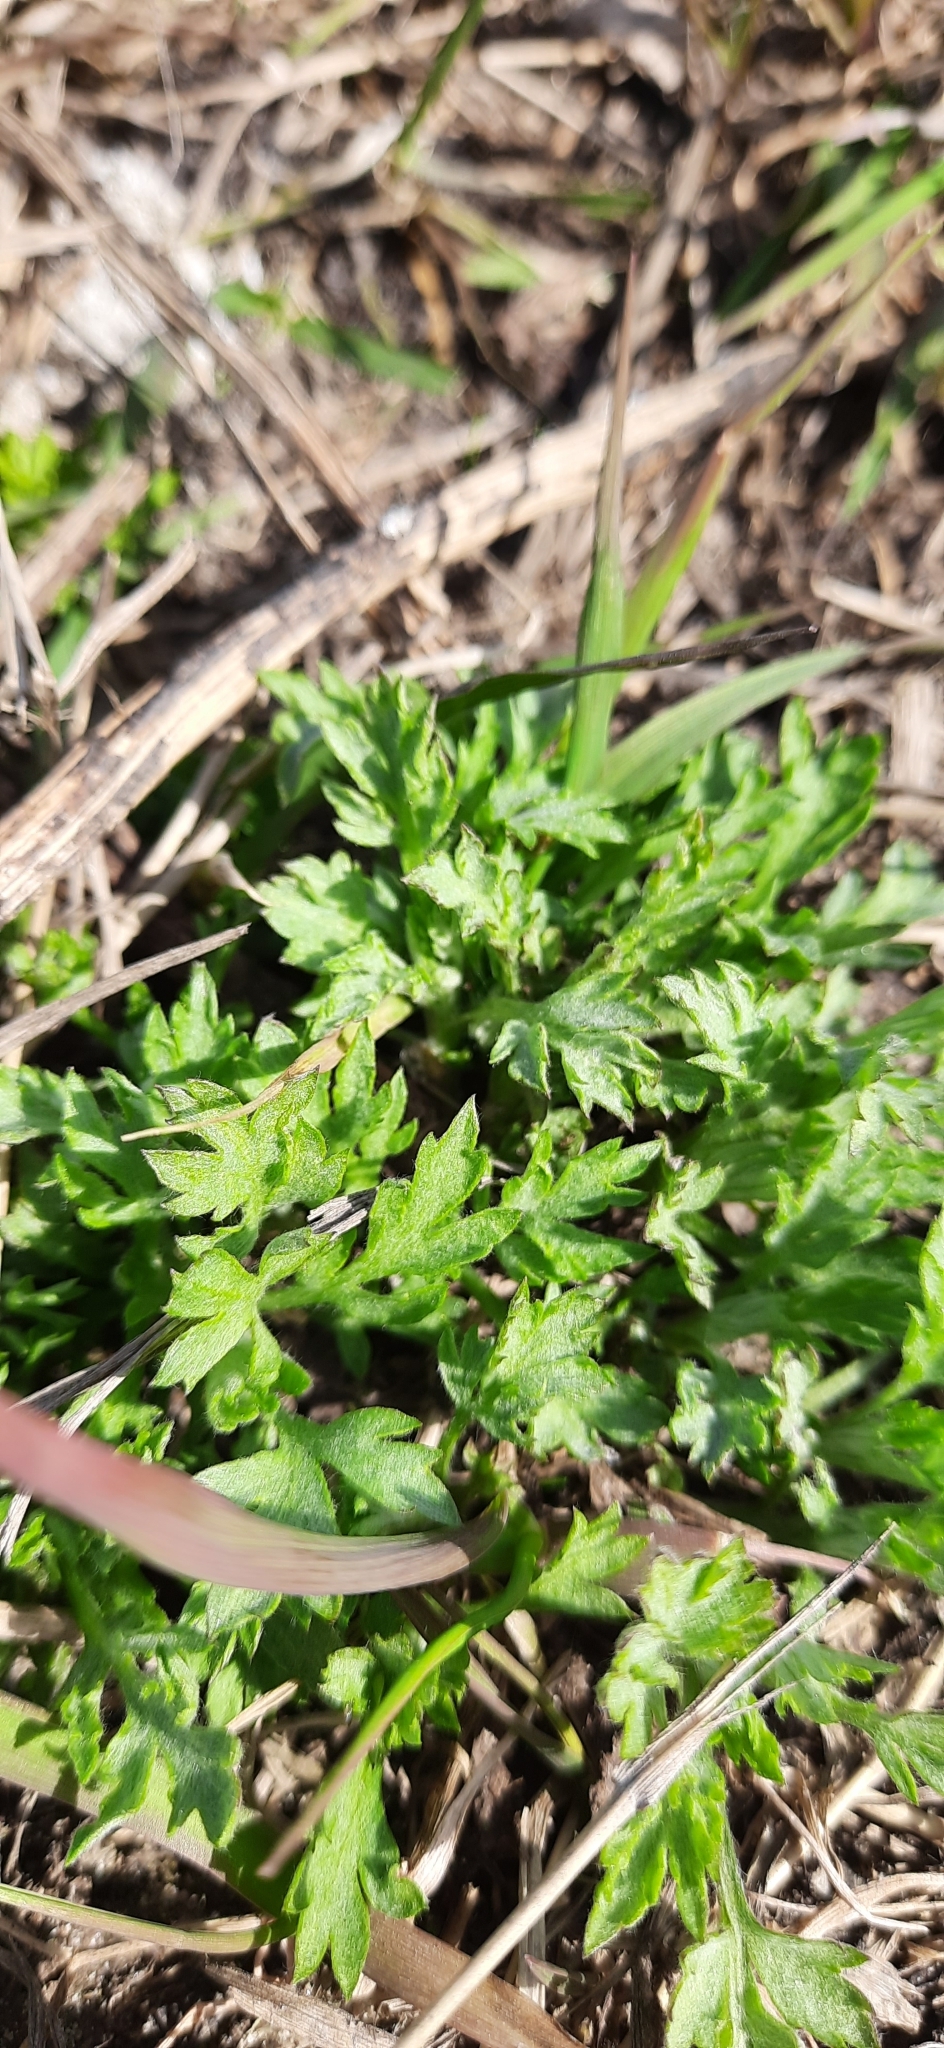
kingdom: Plantae
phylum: Tracheophyta
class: Magnoliopsida
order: Asterales
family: Asteraceae
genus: Artemisia
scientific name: Artemisia vulgaris
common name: Mugwort
